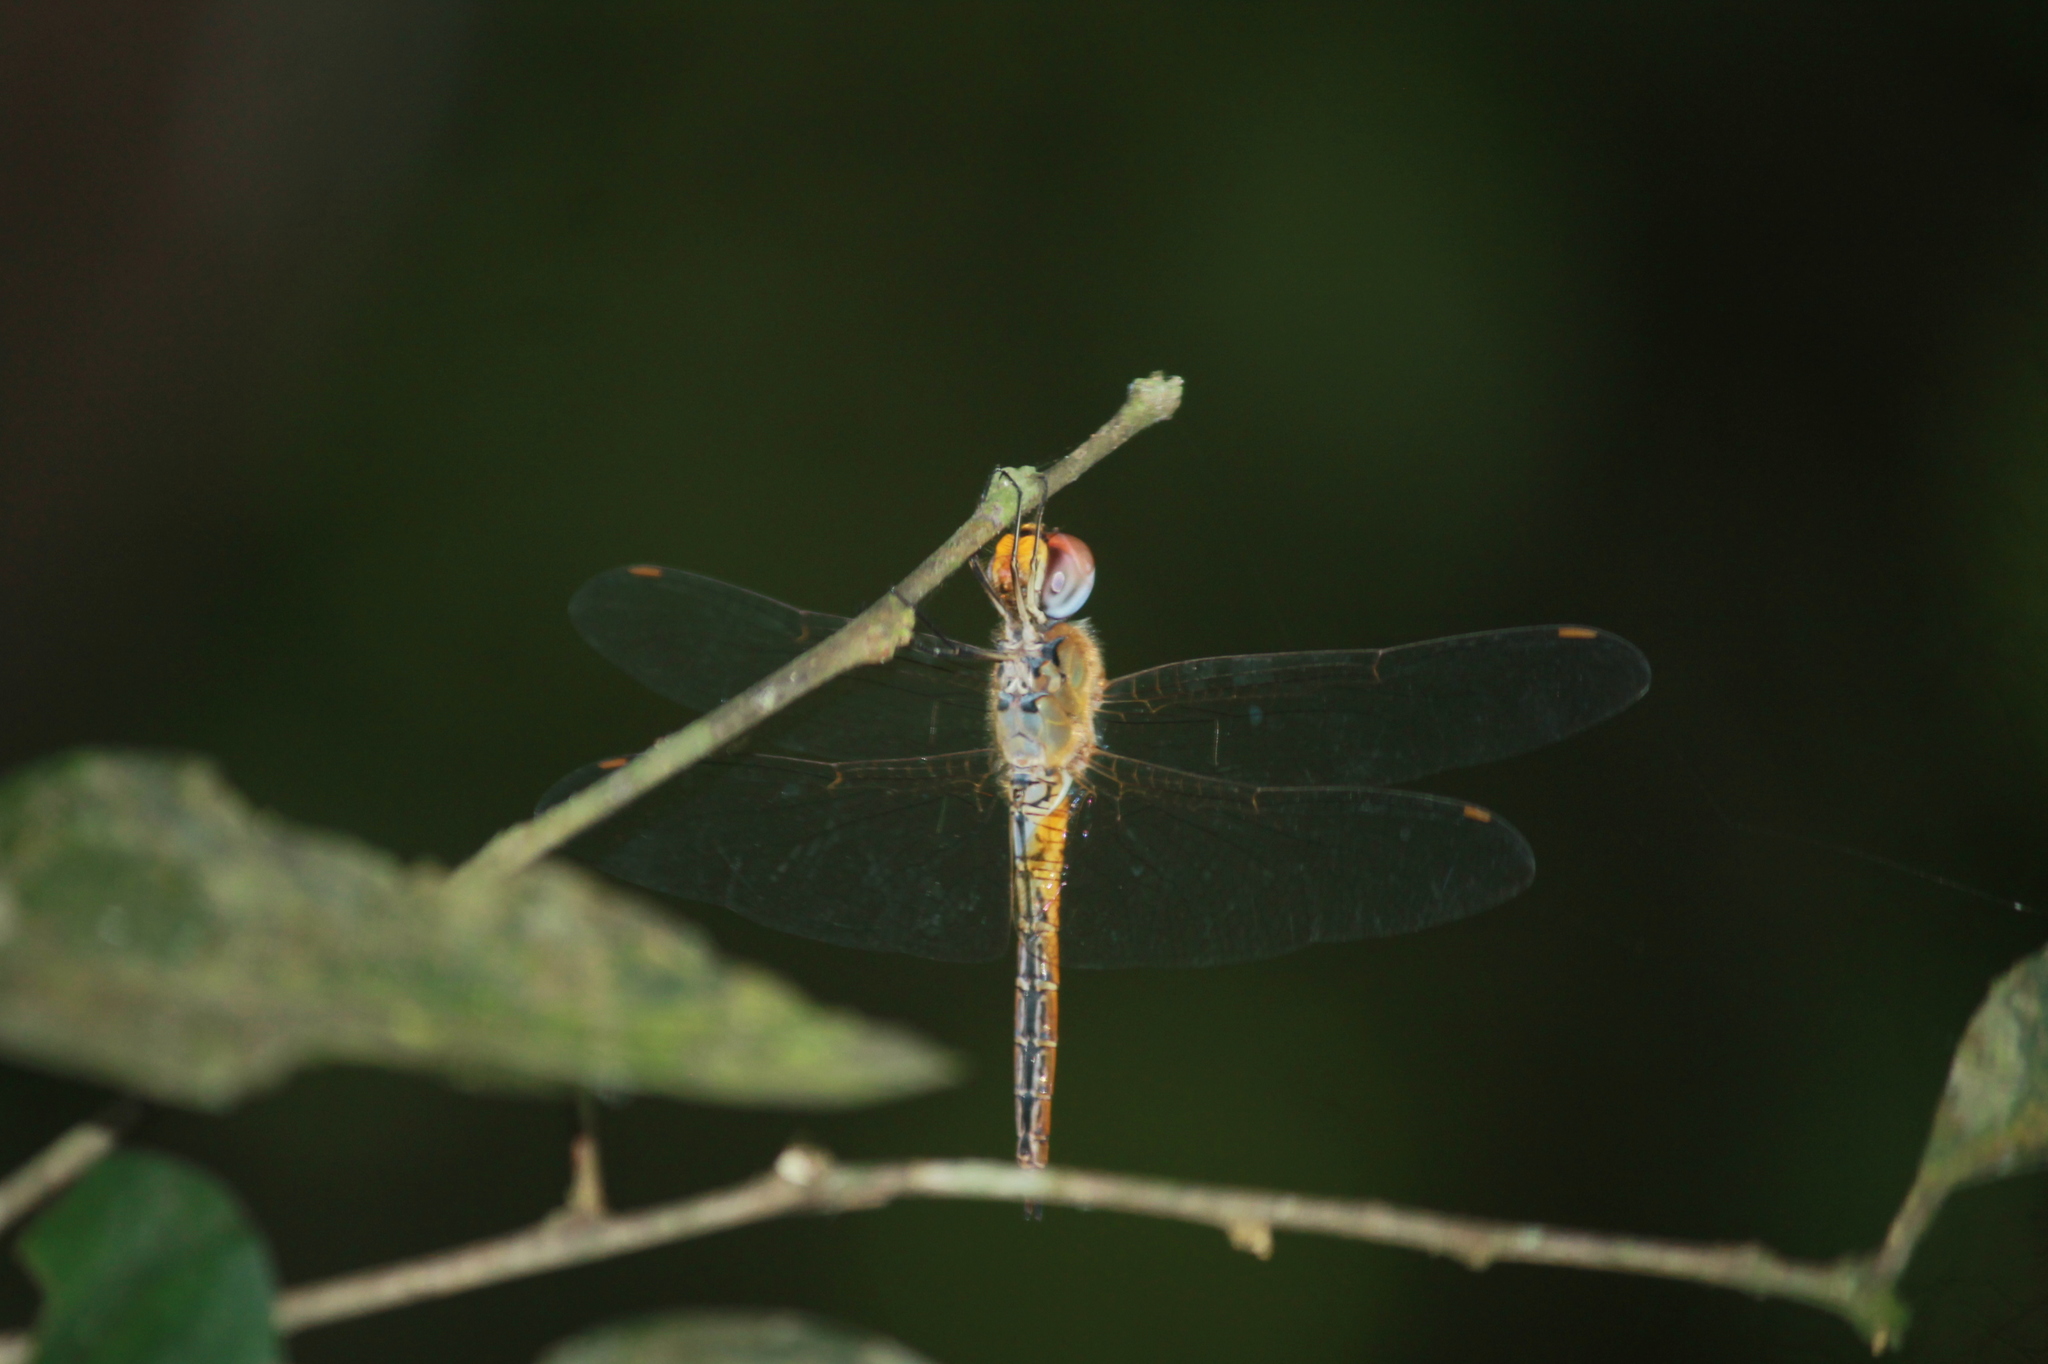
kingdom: Animalia
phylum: Arthropoda
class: Insecta
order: Odonata
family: Libellulidae
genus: Pantala
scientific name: Pantala flavescens
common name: Wandering glider
